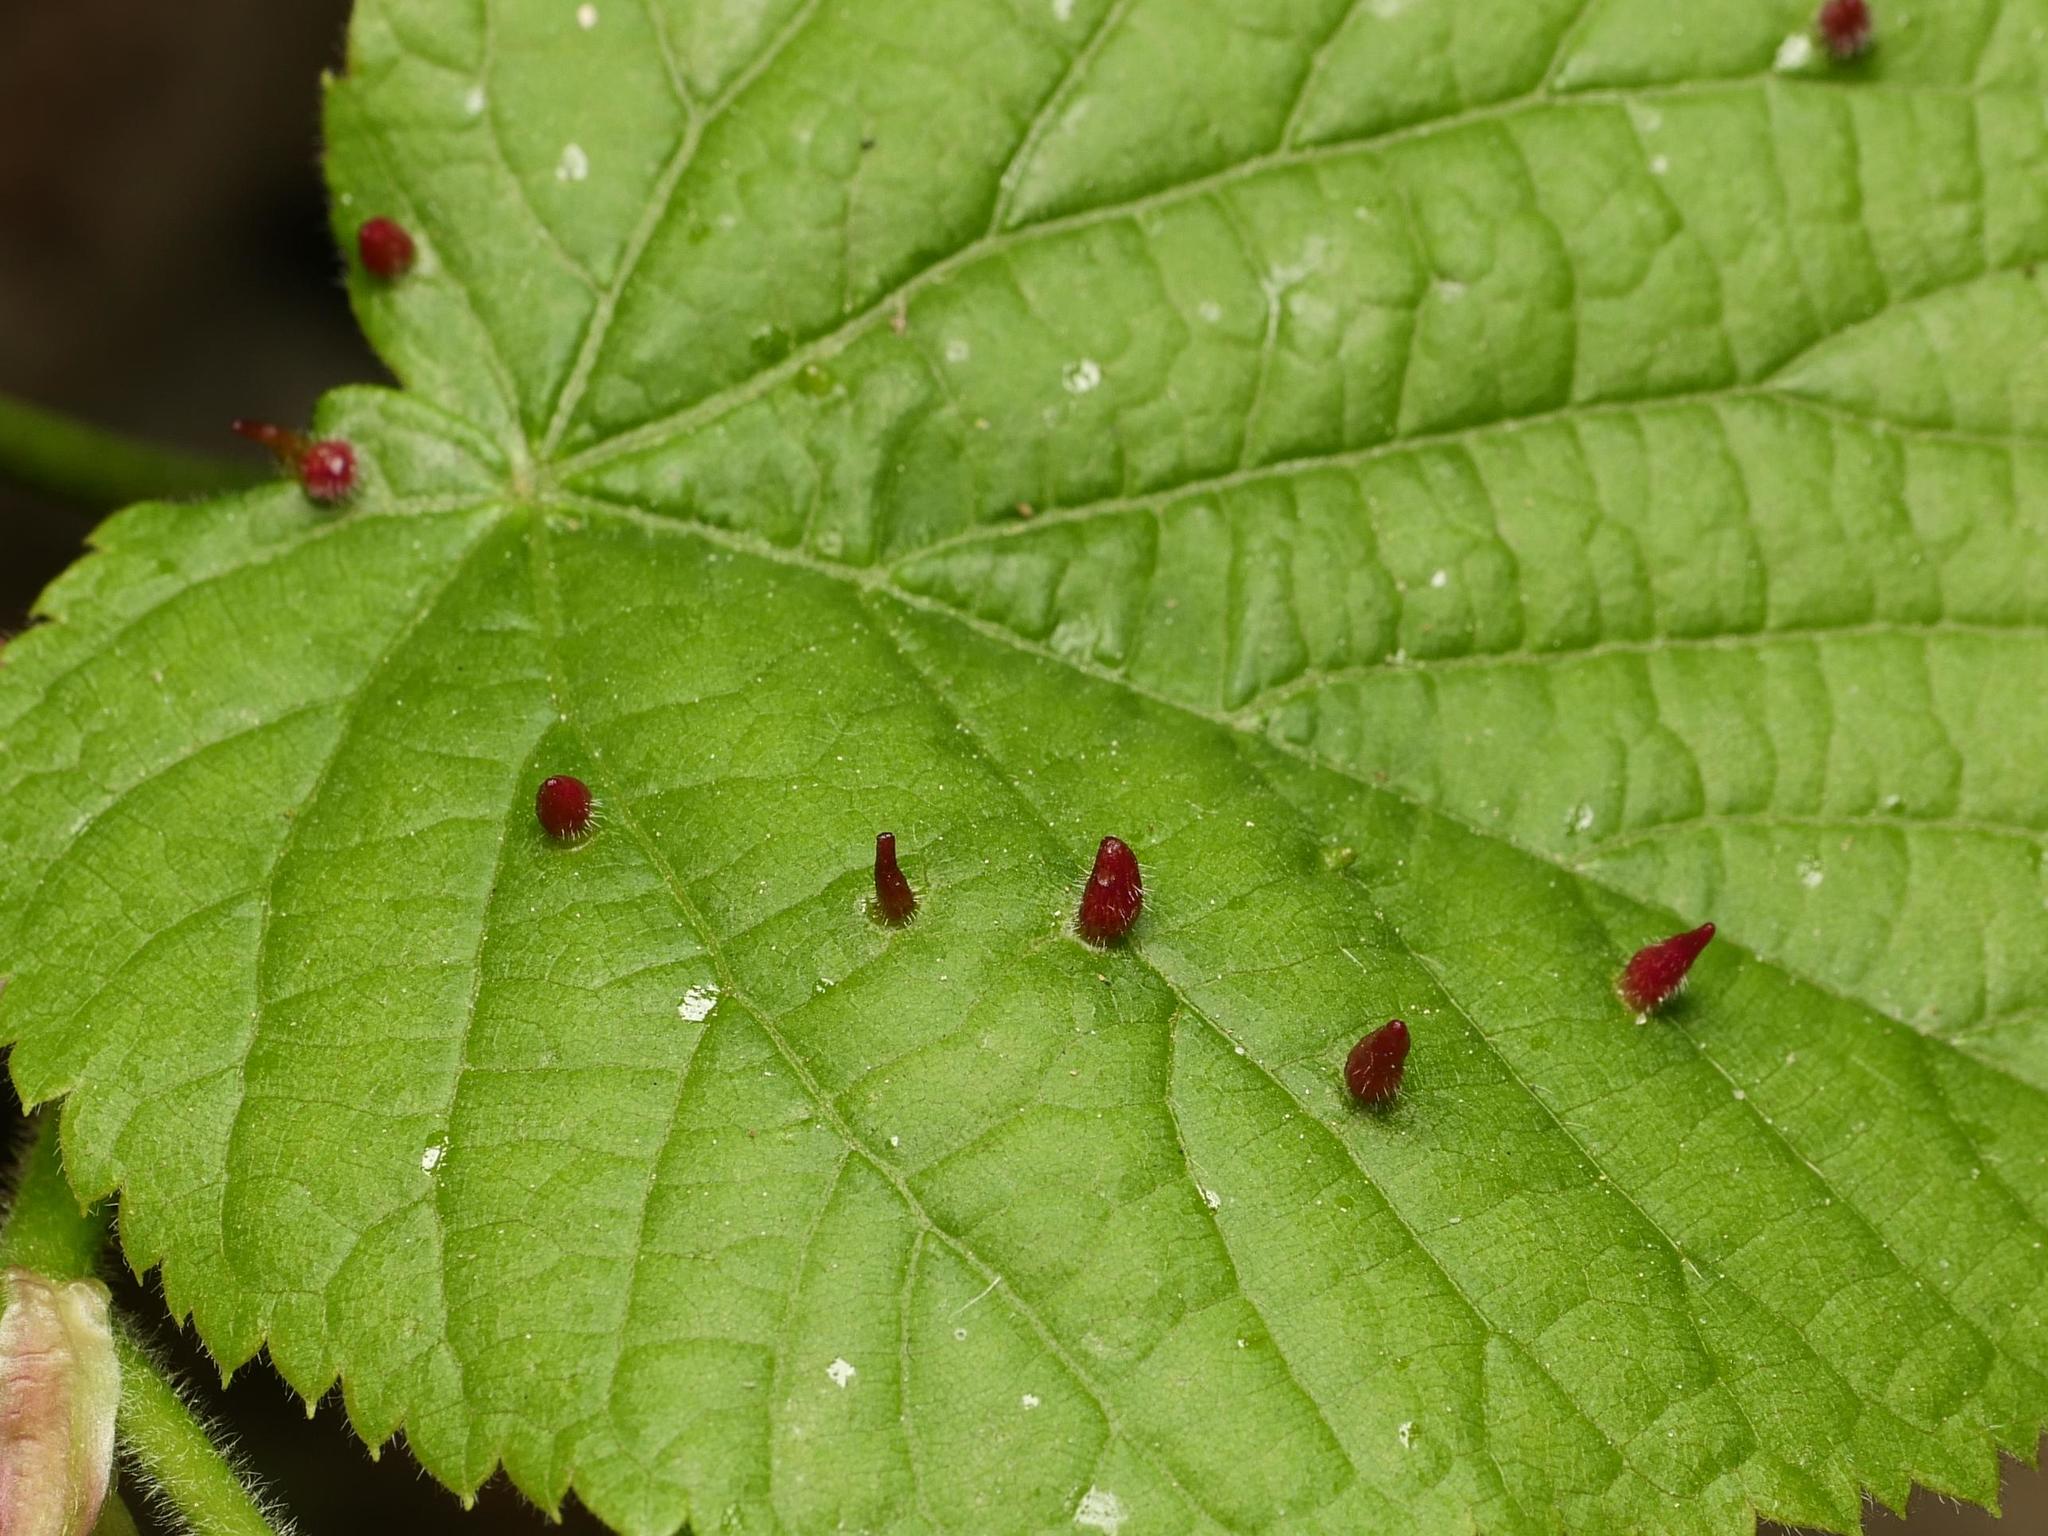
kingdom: Animalia
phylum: Arthropoda
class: Arachnida
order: Trombidiformes
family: Eriophyidae
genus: Eriophyes
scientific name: Eriophyes tiliae
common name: Red nail gall mite
